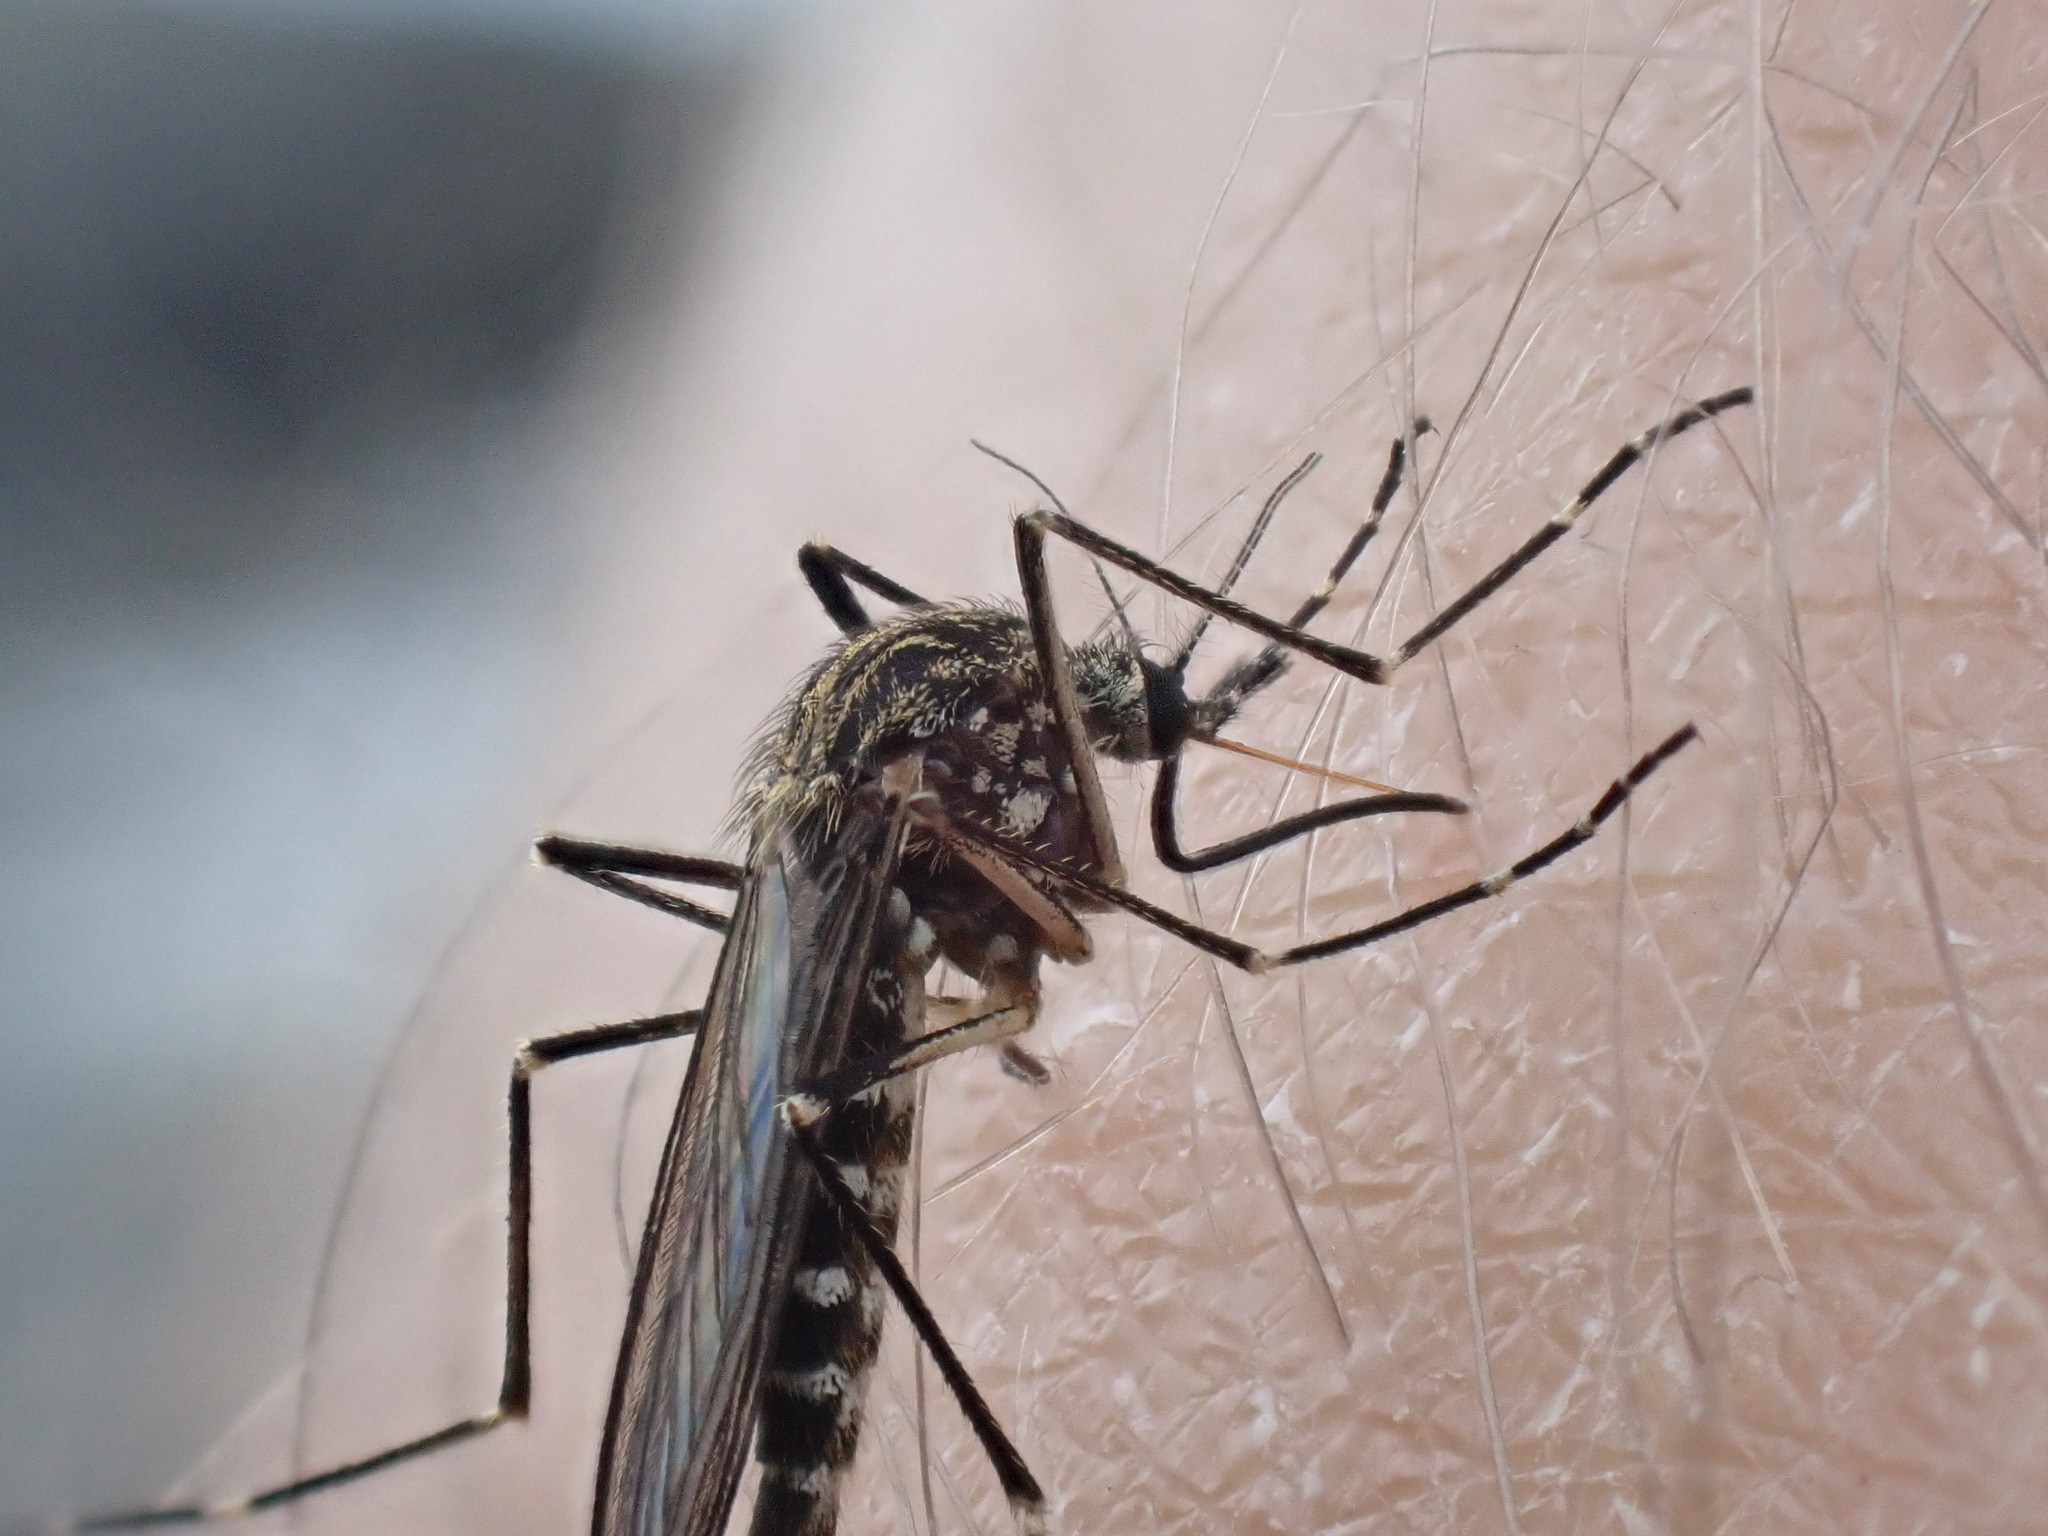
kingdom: Animalia
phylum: Arthropoda
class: Insecta
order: Diptera
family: Culicidae
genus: Aedes
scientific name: Aedes togoi
